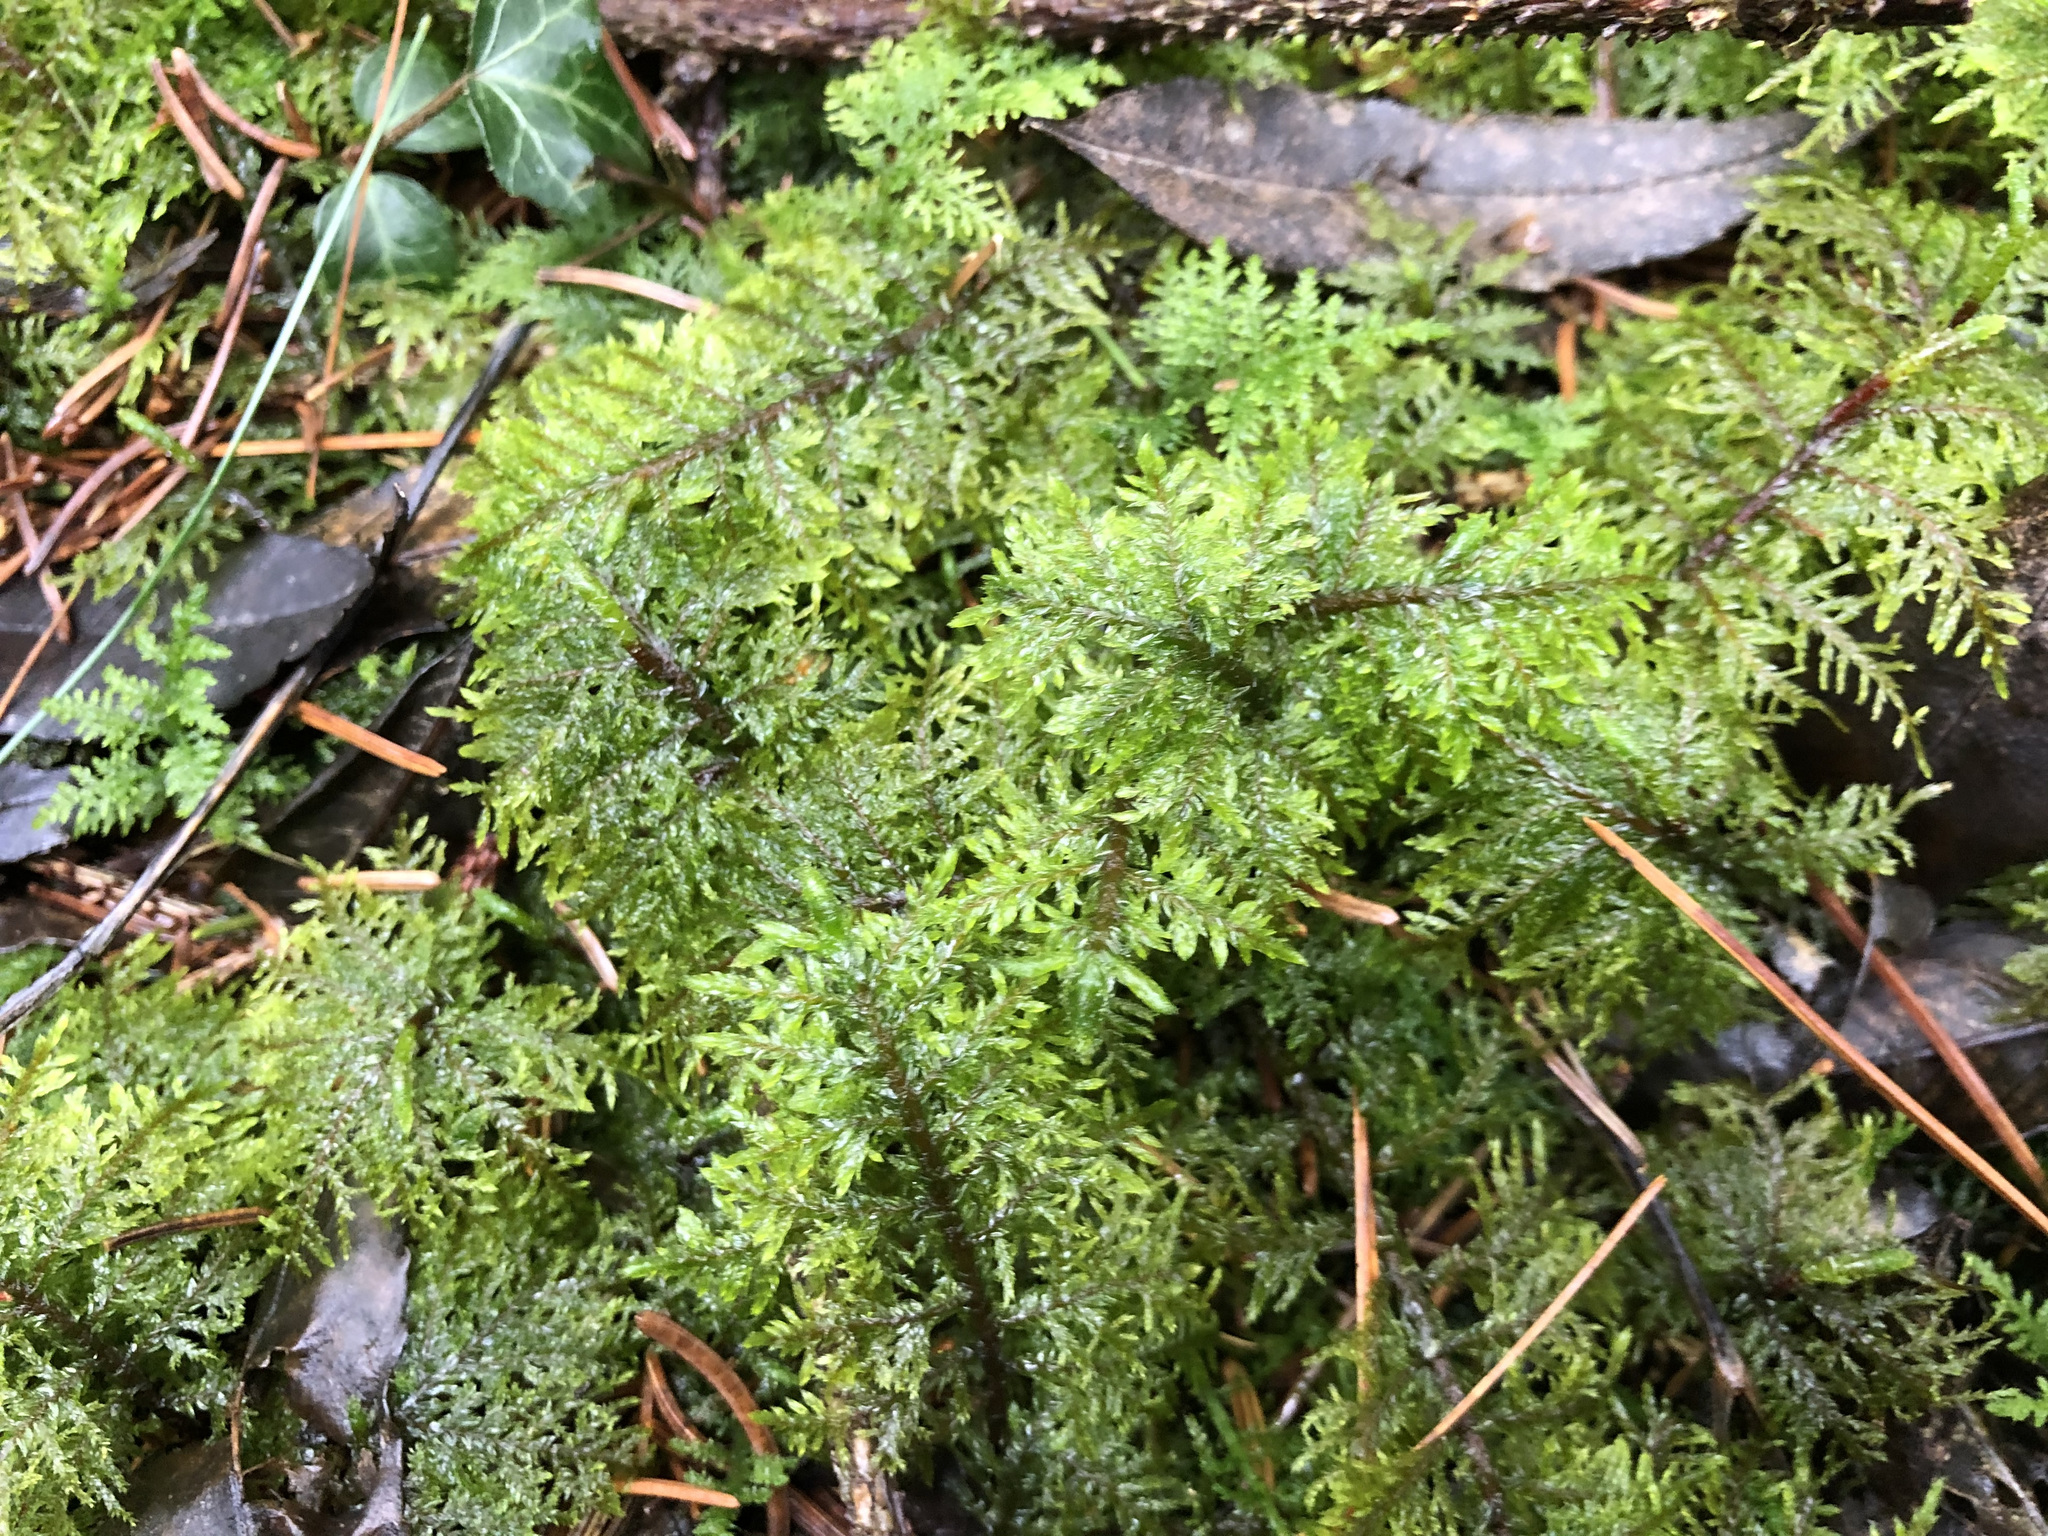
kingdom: Plantae
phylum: Bryophyta
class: Bryopsida
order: Hypnales
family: Hylocomiaceae
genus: Hylocomium
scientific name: Hylocomium splendens
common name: Stairstep moss
